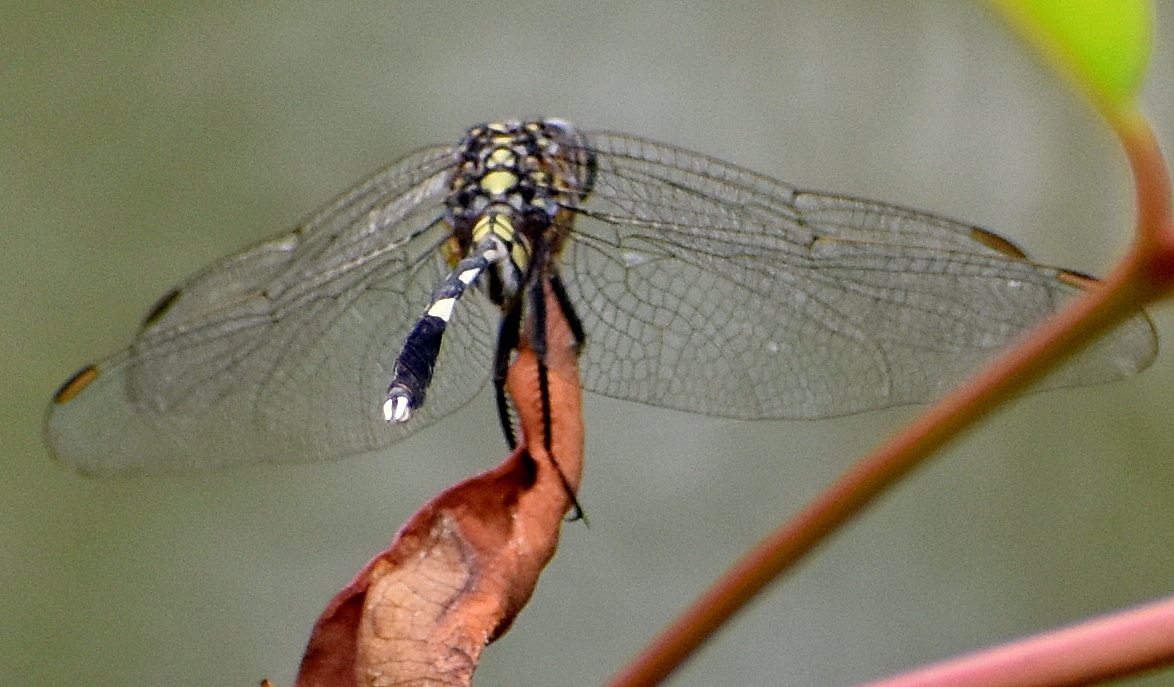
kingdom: Animalia
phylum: Arthropoda
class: Insecta
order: Odonata
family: Libellulidae
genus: Orthetrum
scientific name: Orthetrum sabina
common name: Slender skimmer
